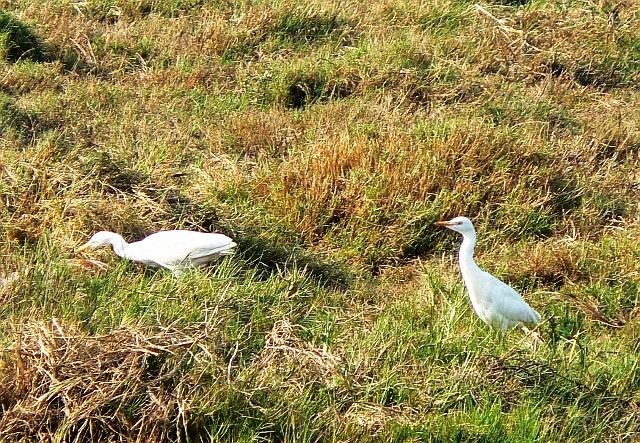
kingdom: Animalia
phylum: Chordata
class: Aves
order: Pelecaniformes
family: Ardeidae
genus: Bubulcus
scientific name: Bubulcus ibis
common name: Cattle egret
